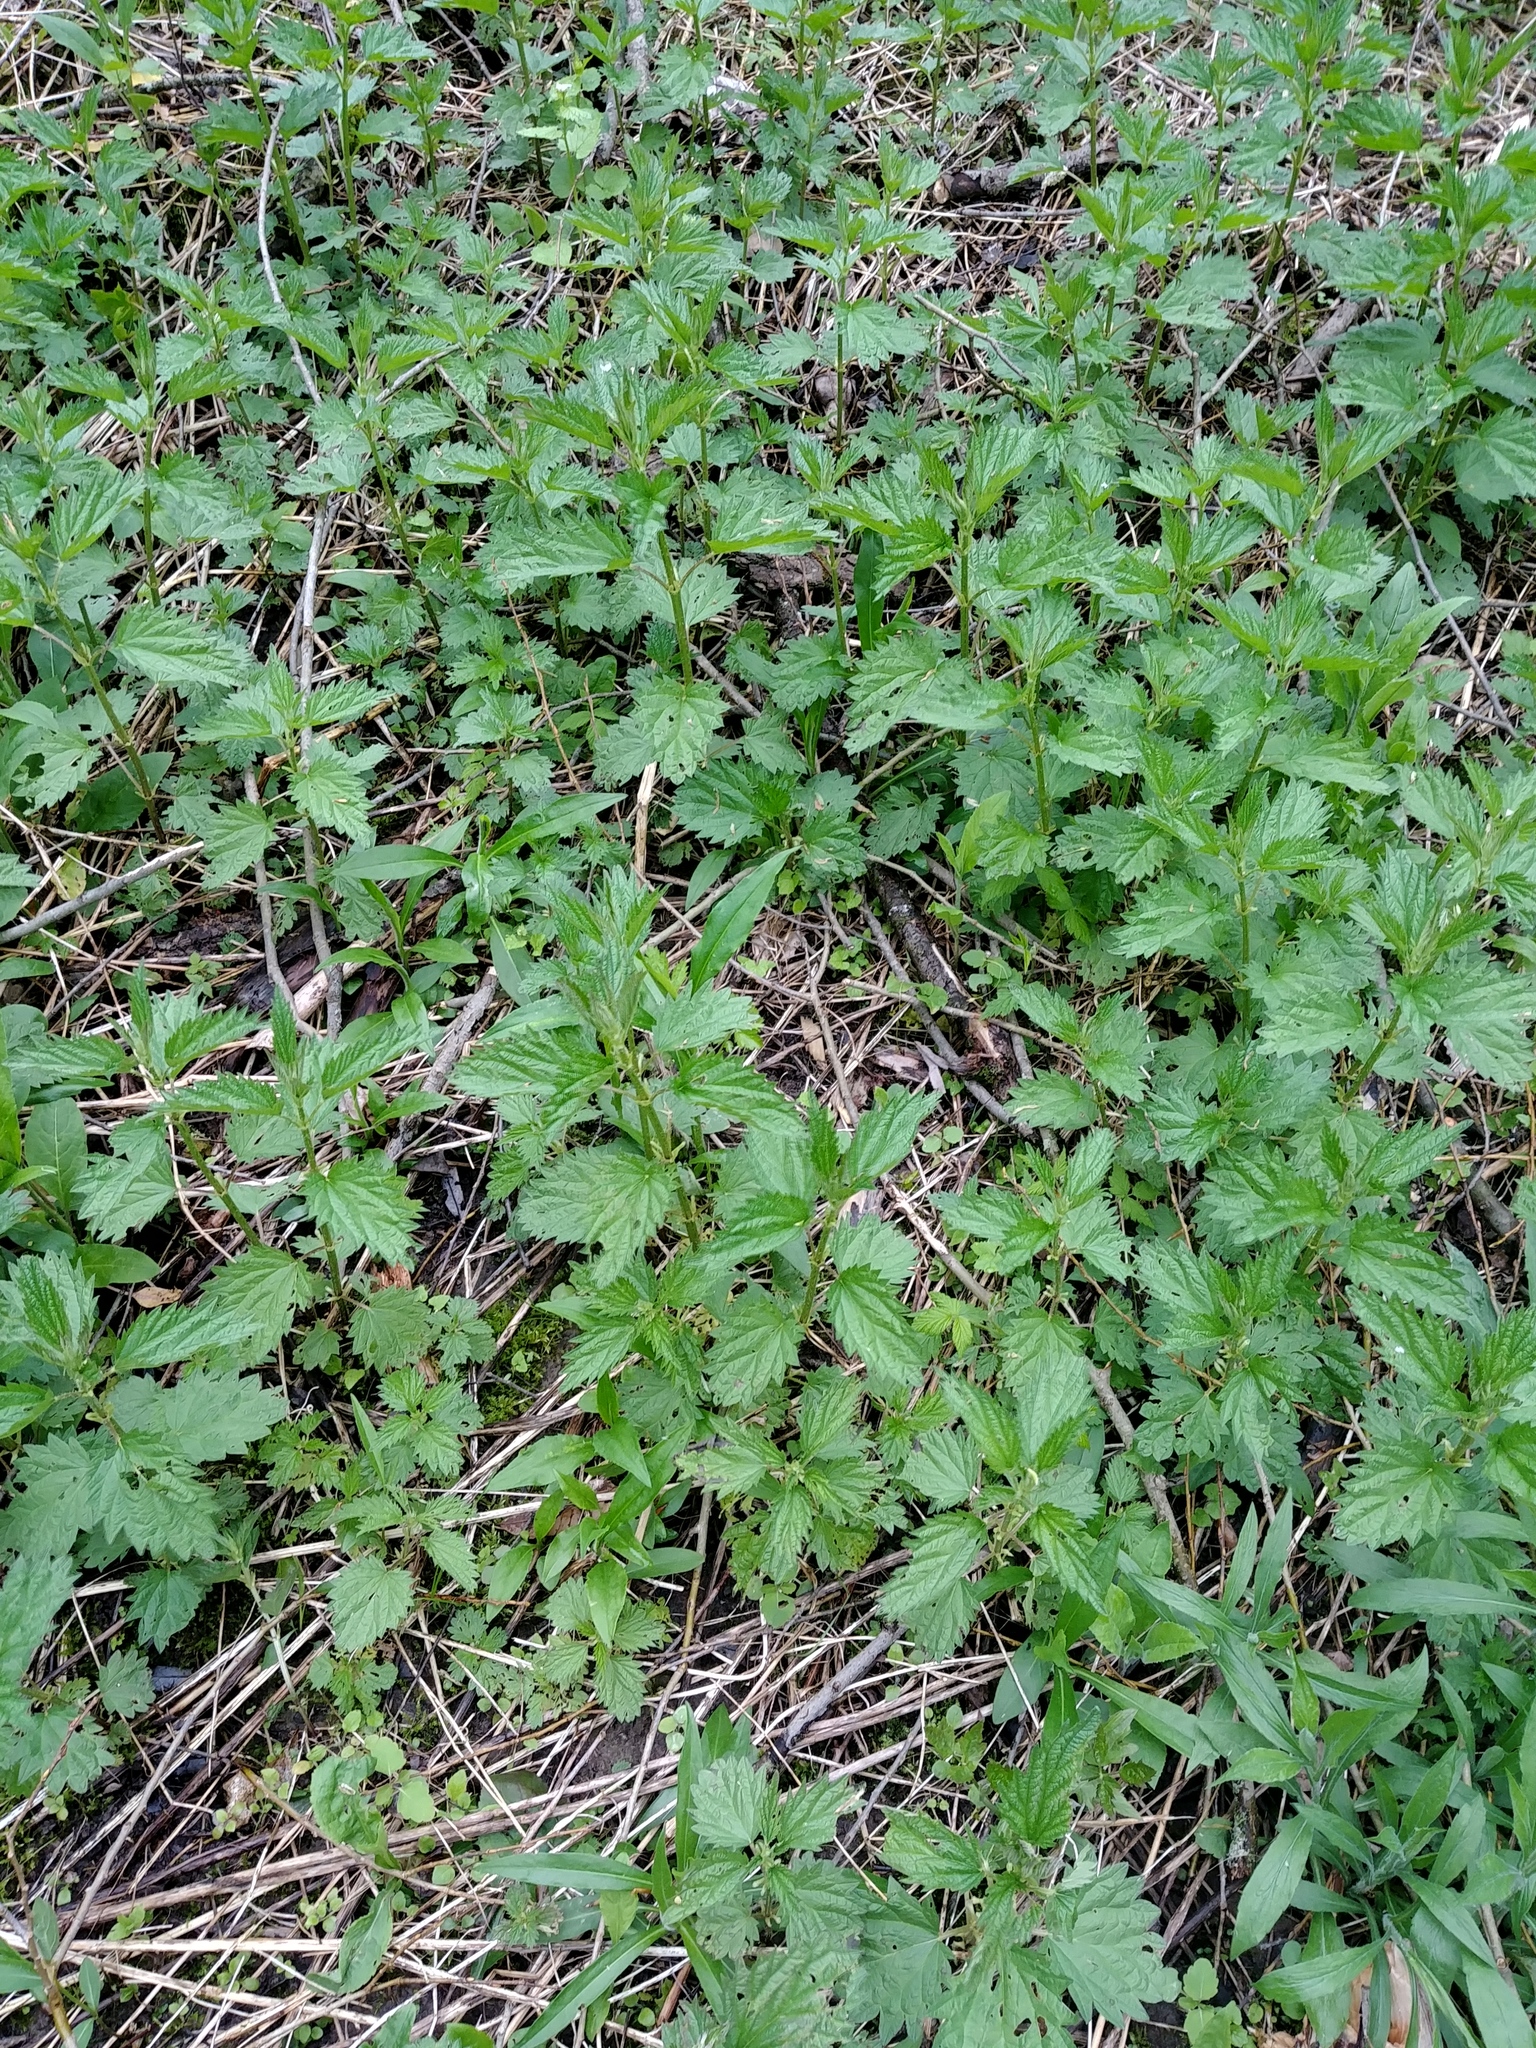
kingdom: Plantae
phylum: Tracheophyta
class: Magnoliopsida
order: Rosales
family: Urticaceae
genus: Urtica
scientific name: Urtica dioica
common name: Common nettle
